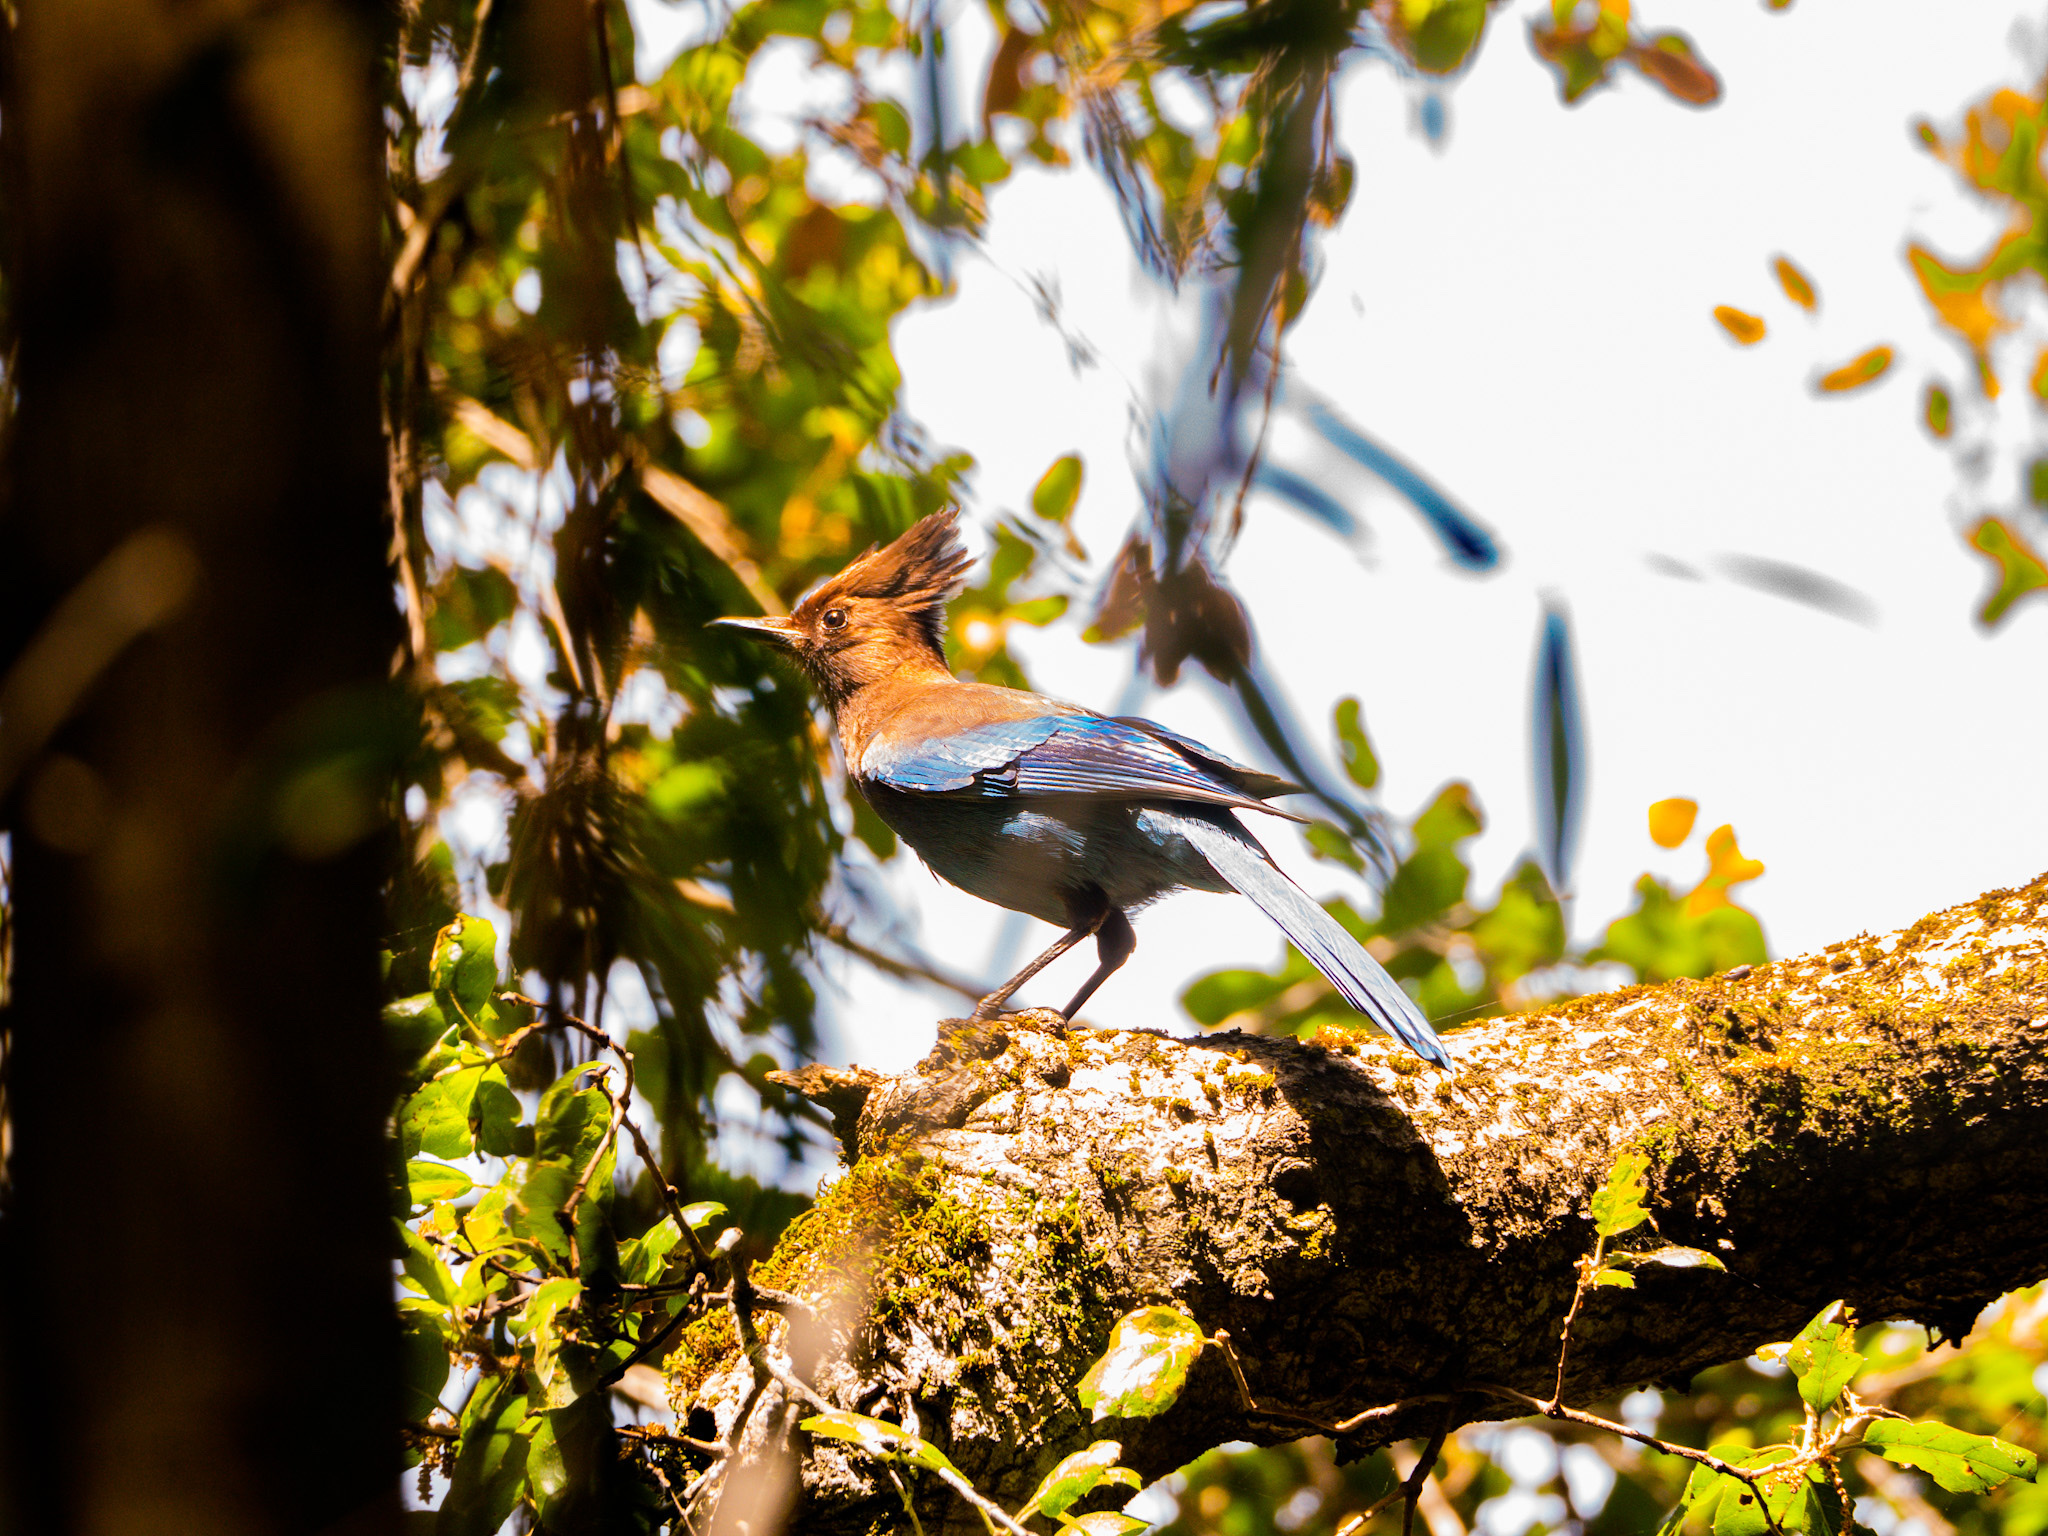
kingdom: Animalia
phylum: Chordata
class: Aves
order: Passeriformes
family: Corvidae
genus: Cyanocitta
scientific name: Cyanocitta stelleri
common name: Steller's jay
